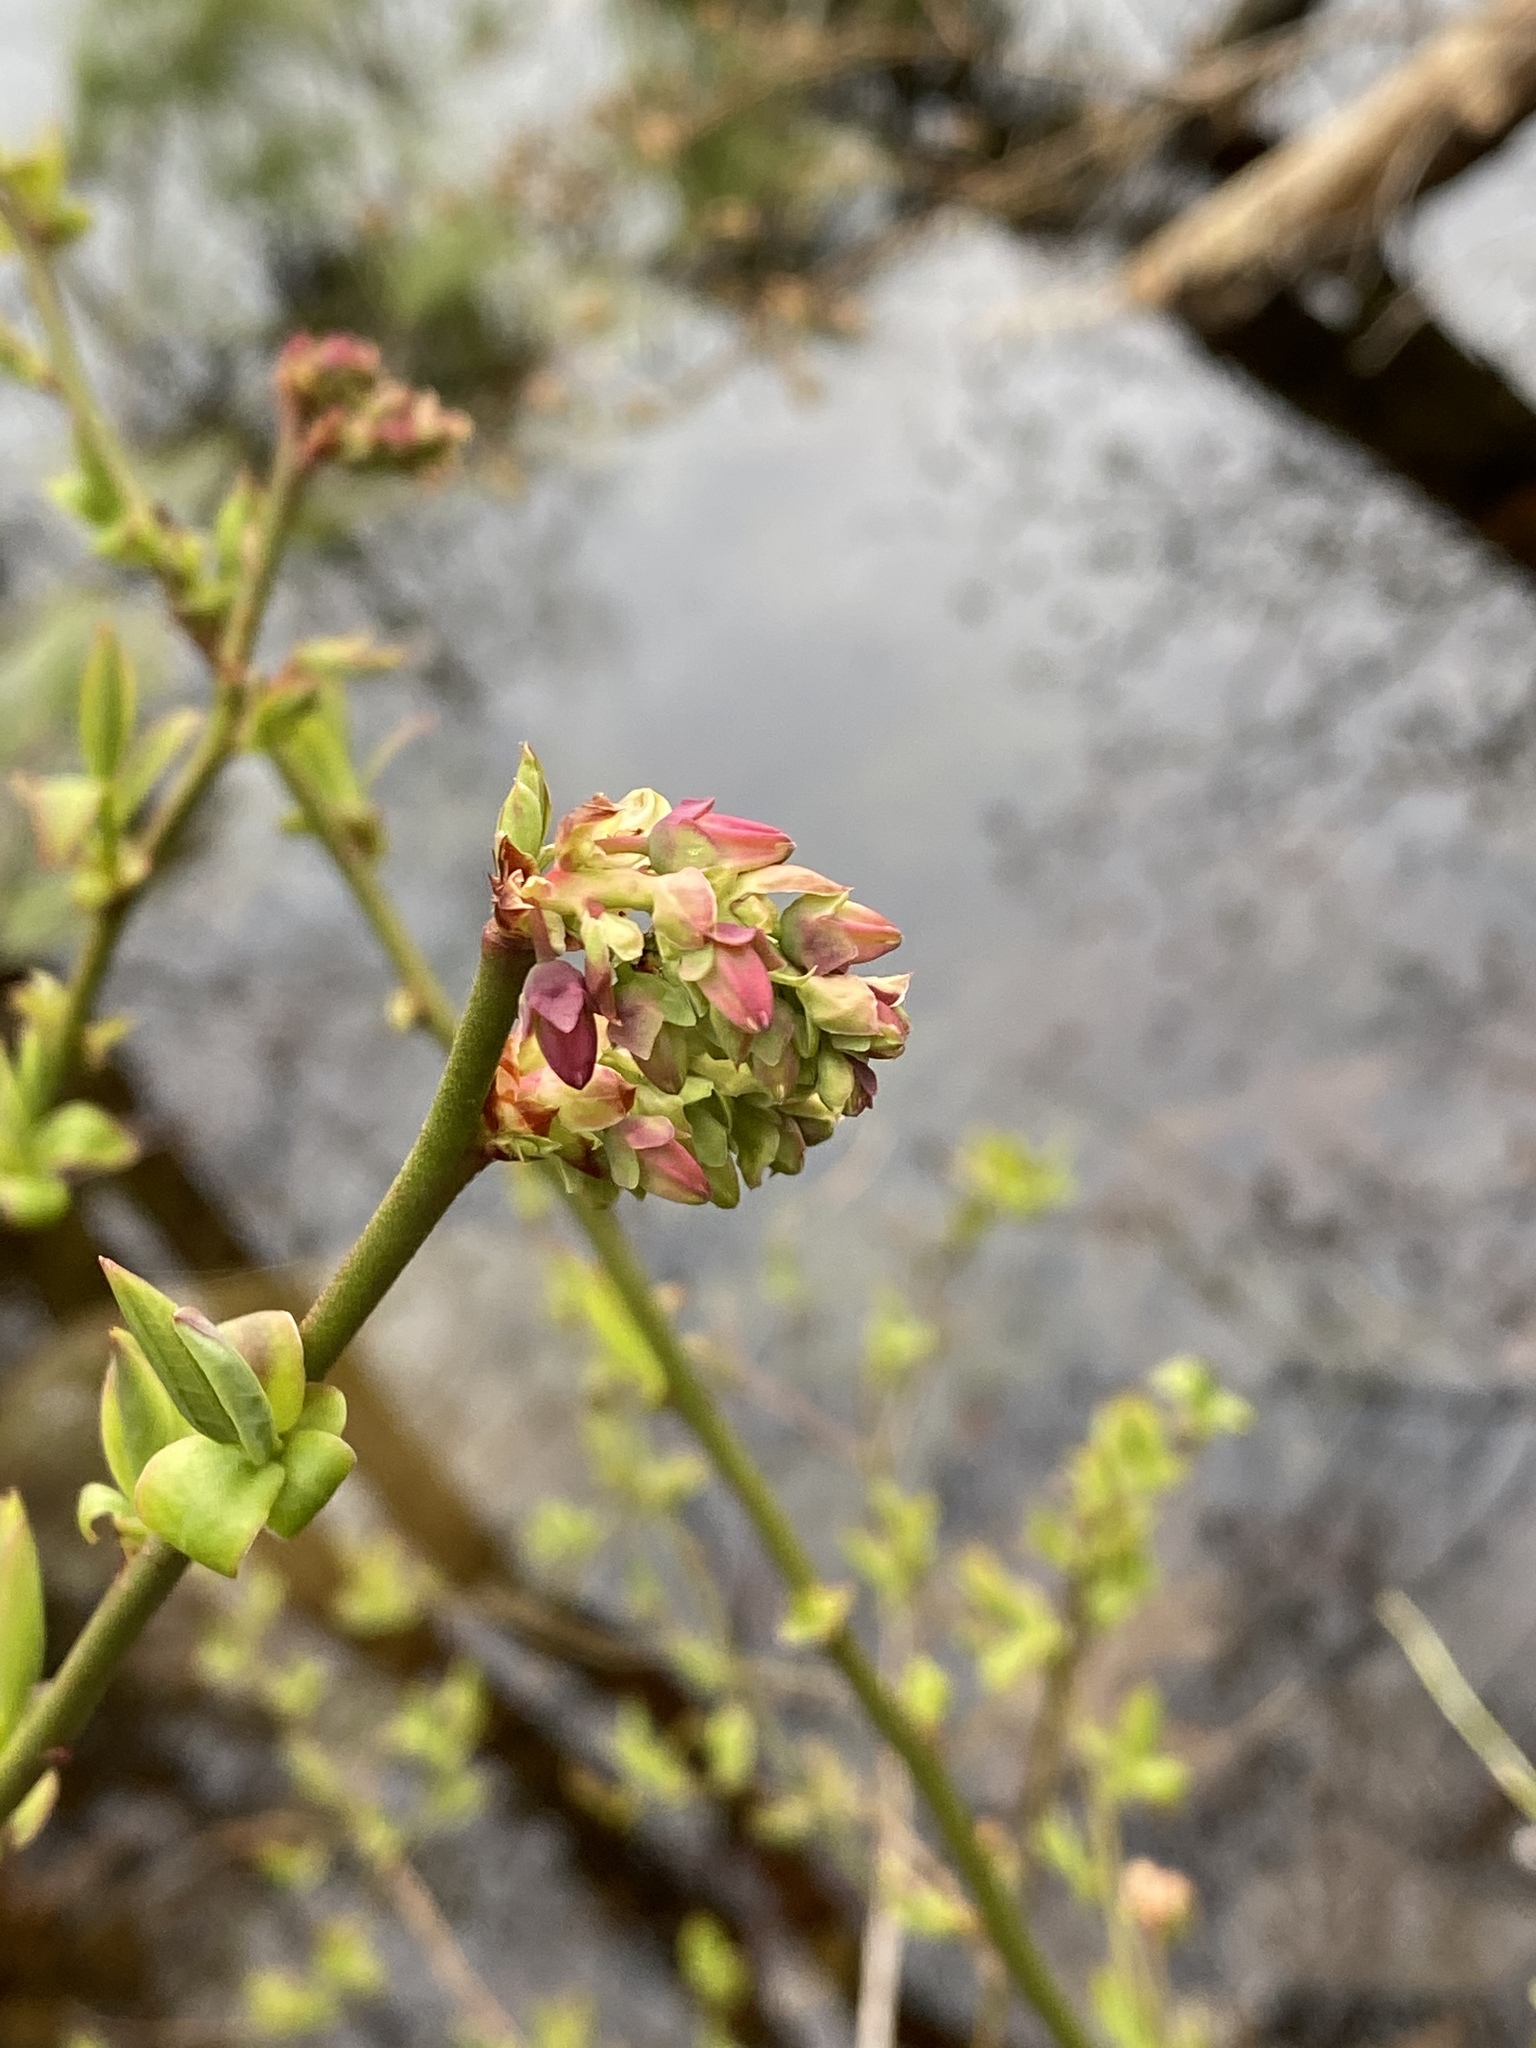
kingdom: Plantae
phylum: Tracheophyta
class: Magnoliopsida
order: Ericales
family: Ericaceae
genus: Vaccinium
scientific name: Vaccinium pallidum
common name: Blue ridge blueberry
